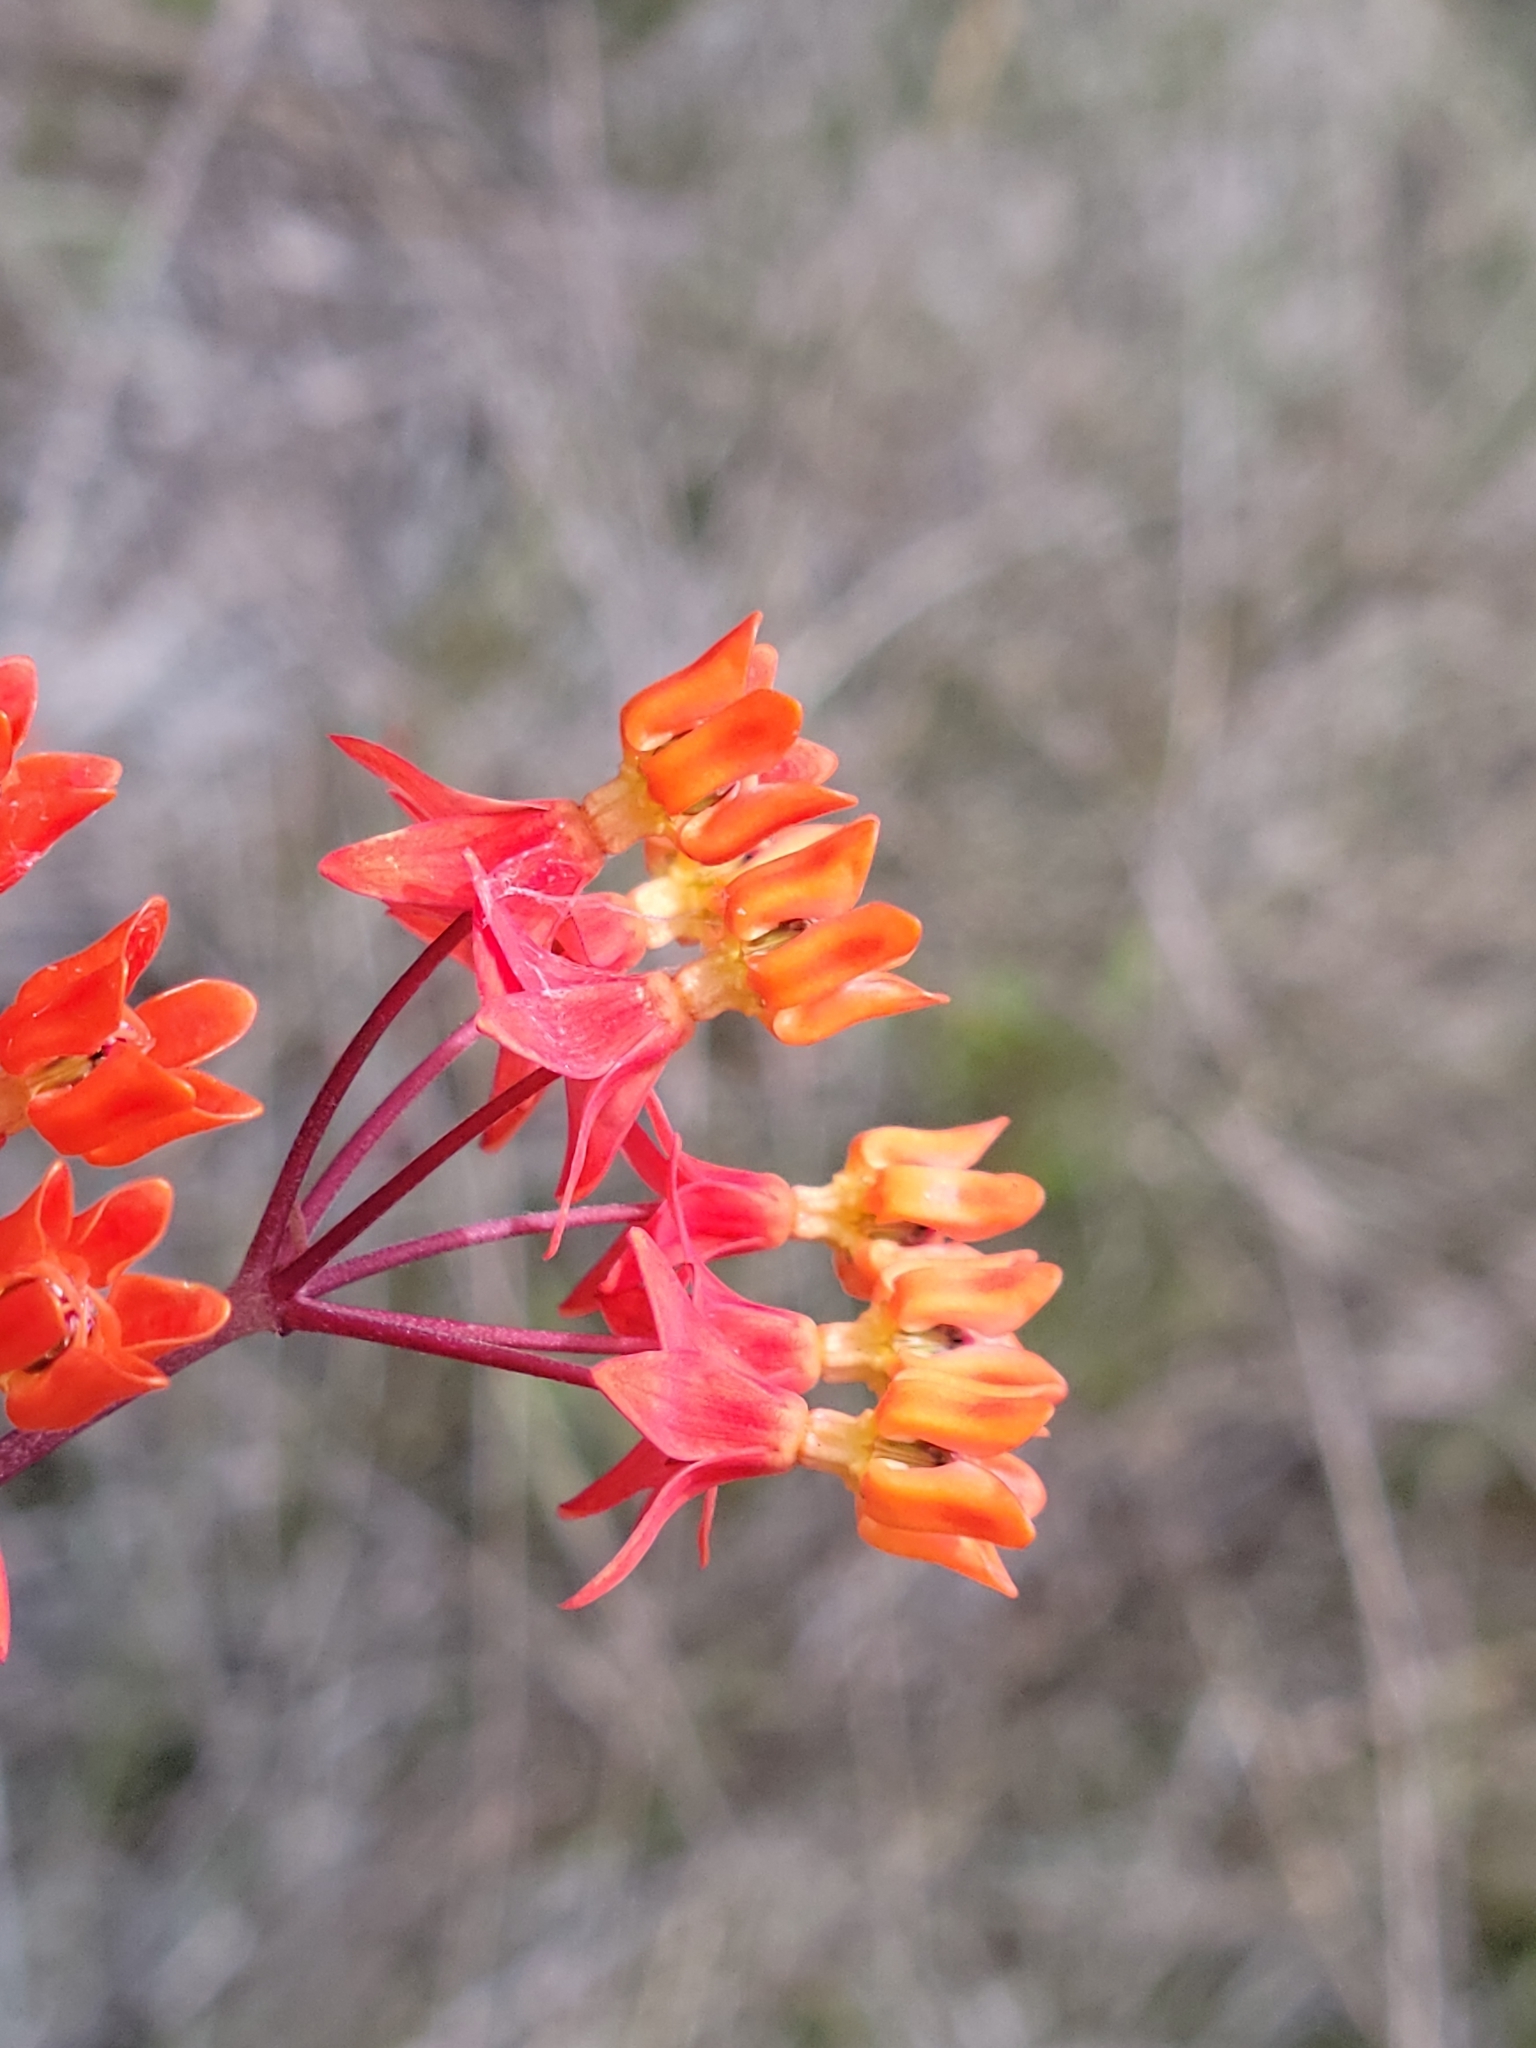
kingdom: Plantae
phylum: Tracheophyta
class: Magnoliopsida
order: Gentianales
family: Apocynaceae
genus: Asclepias
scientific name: Asclepias lanceolata
